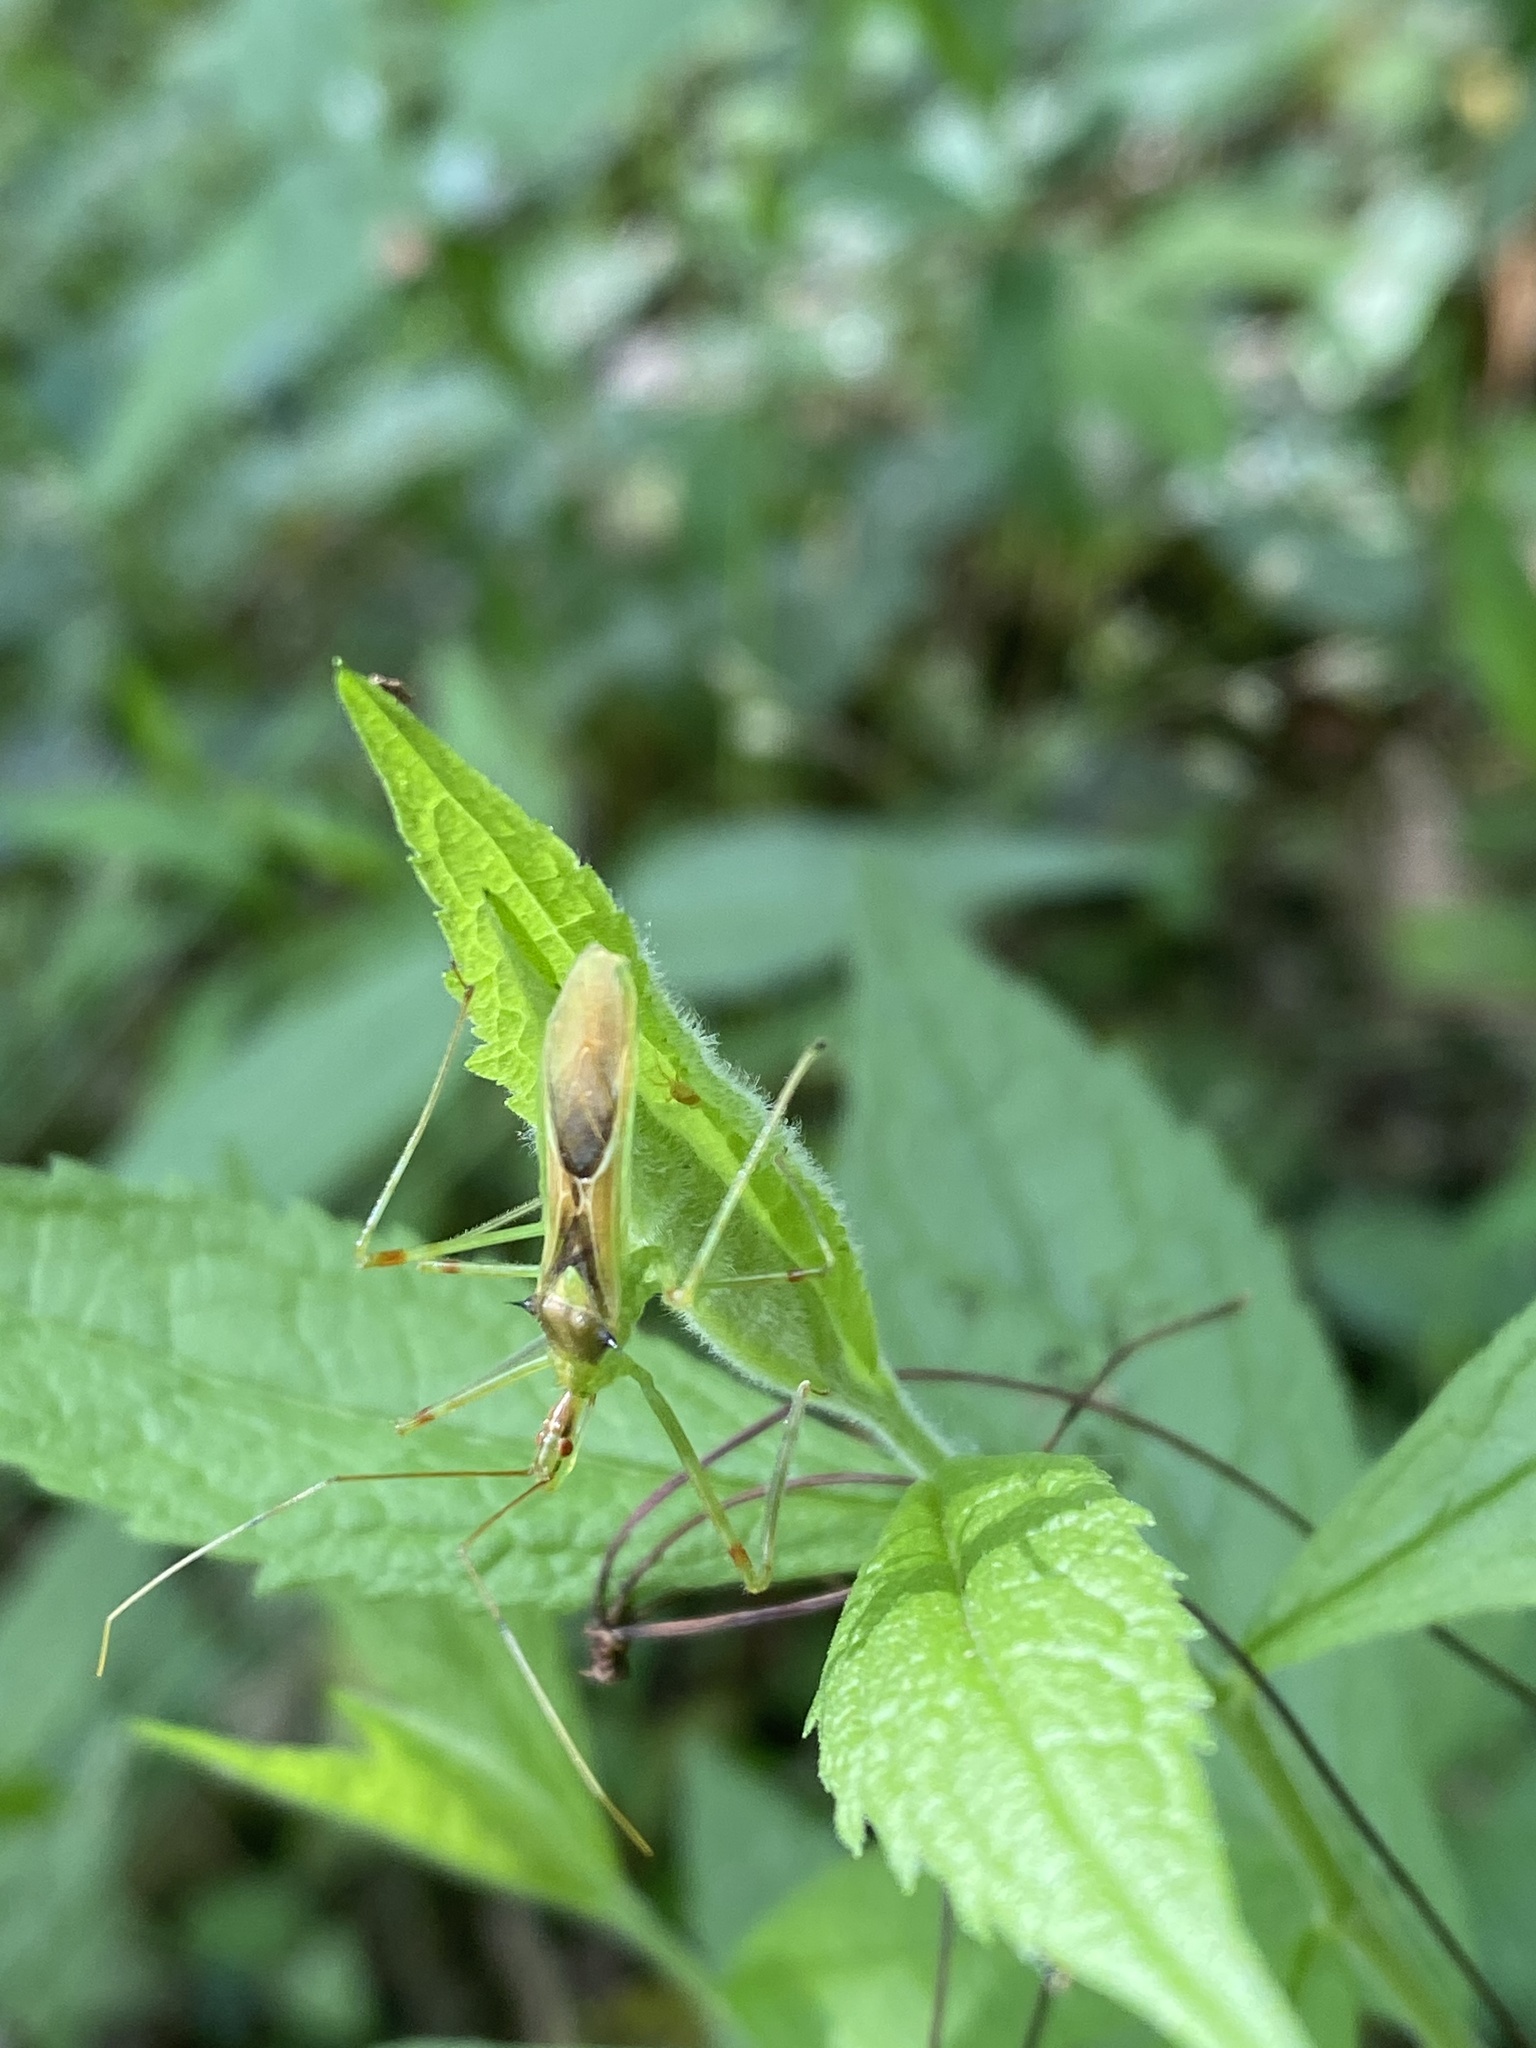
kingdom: Animalia
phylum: Arthropoda
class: Insecta
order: Hemiptera
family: Reduviidae
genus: Zelus
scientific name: Zelus luridus
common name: Pale green assassin bug
